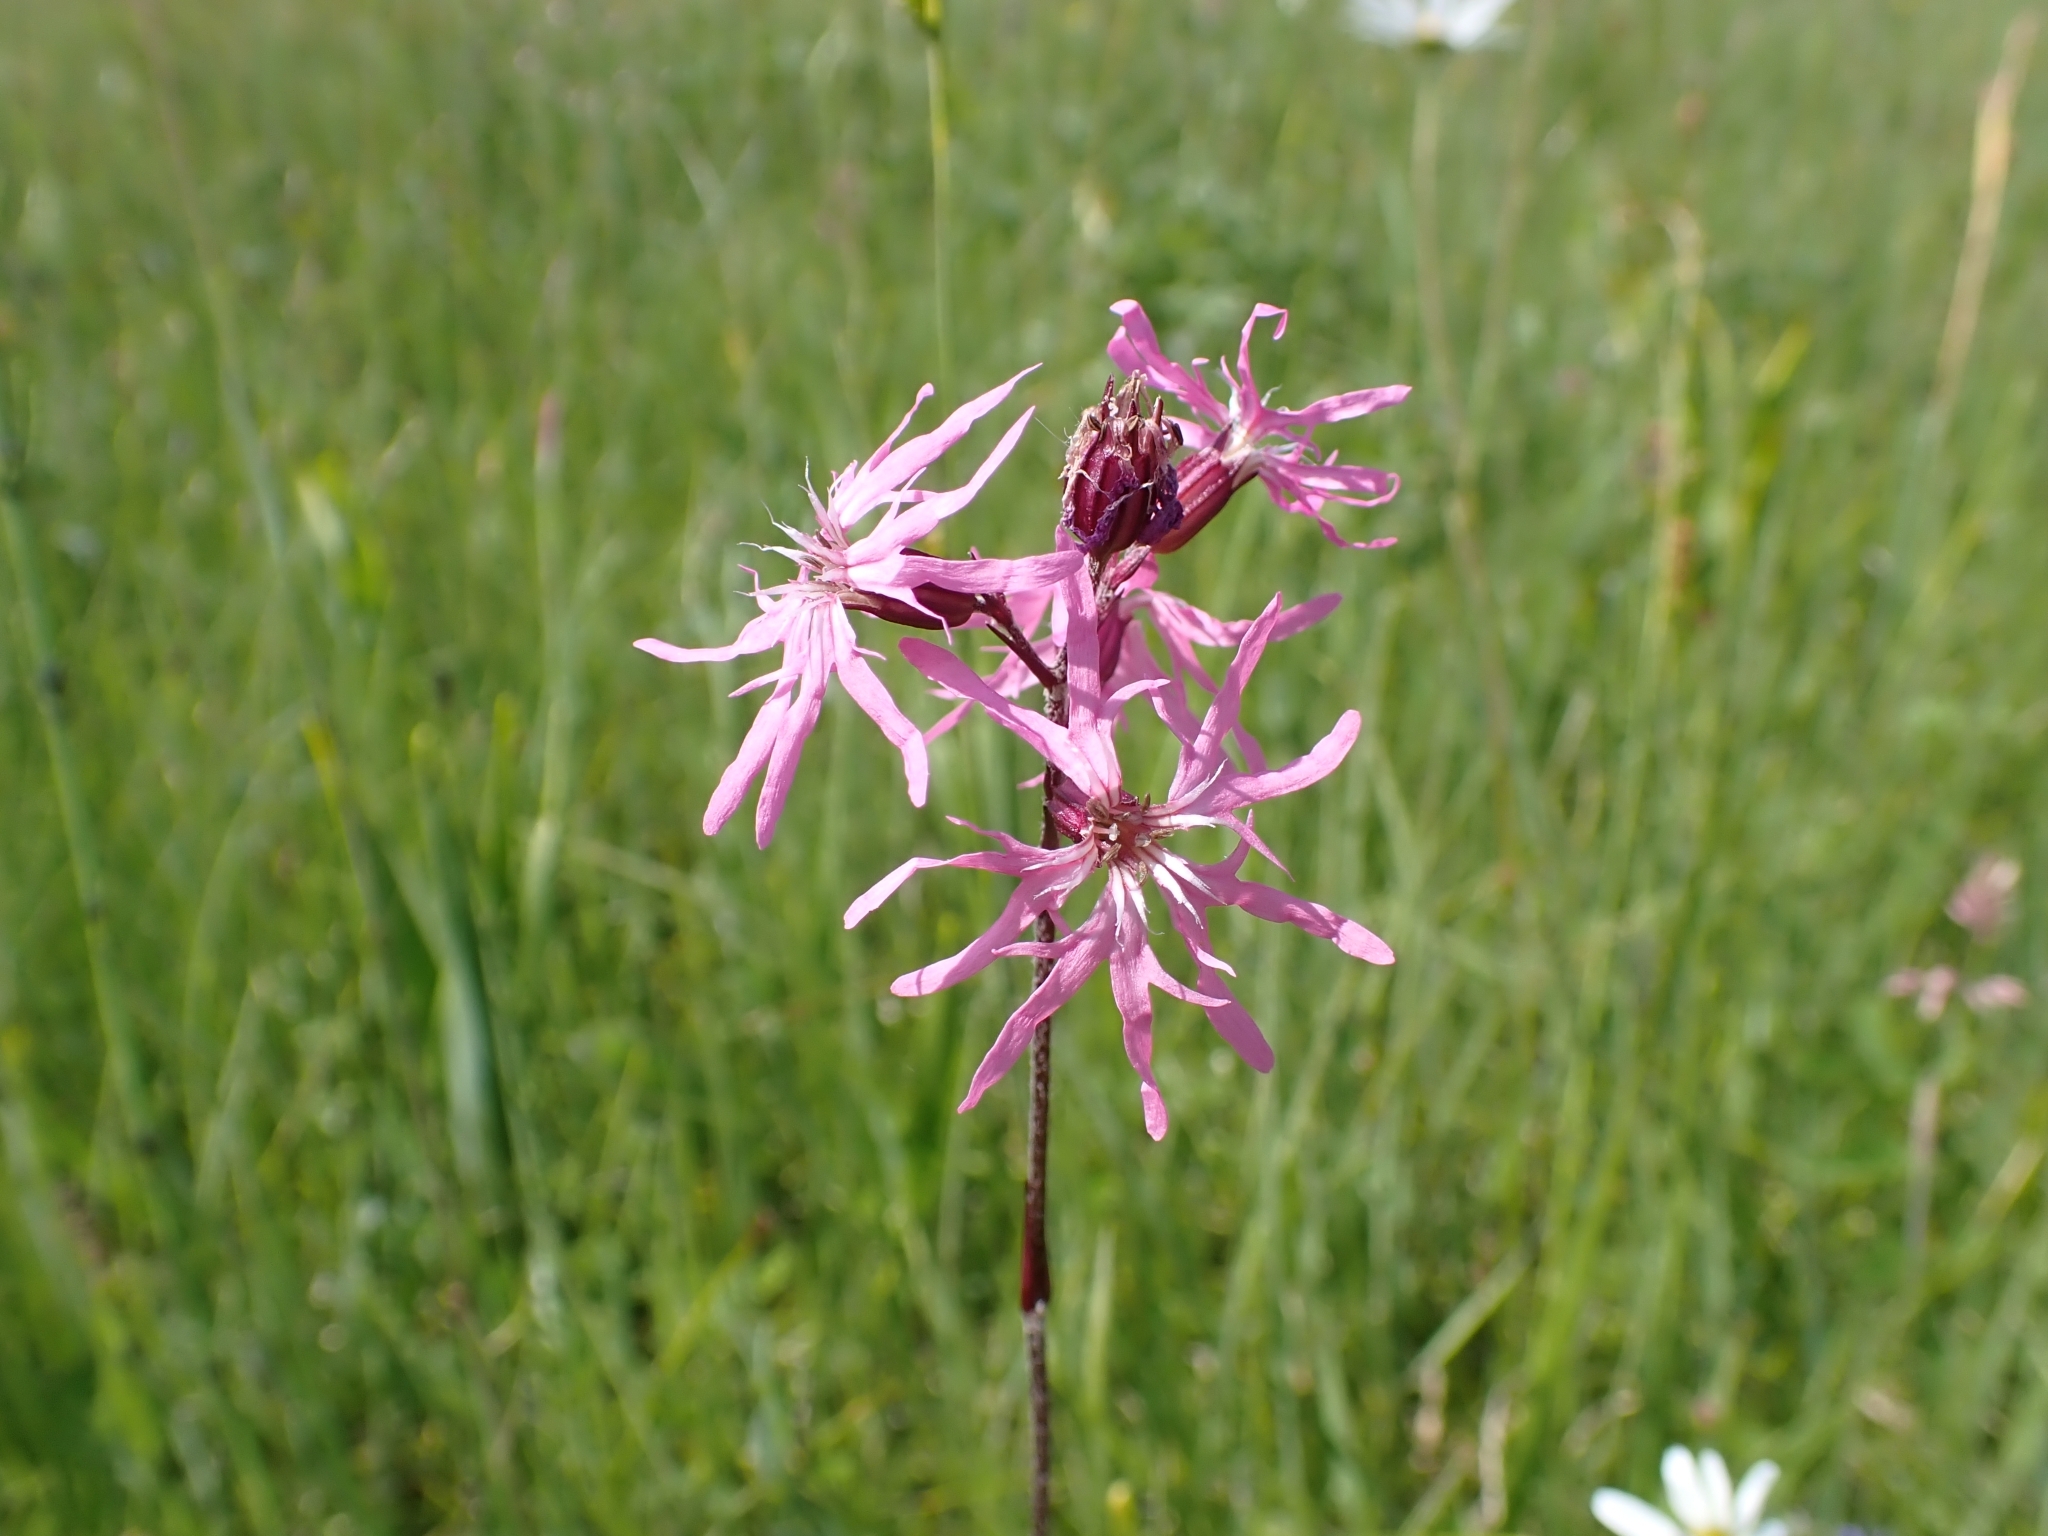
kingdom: Plantae
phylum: Tracheophyta
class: Magnoliopsida
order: Caryophyllales
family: Caryophyllaceae
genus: Silene
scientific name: Silene flos-cuculi
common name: Ragged-robin
